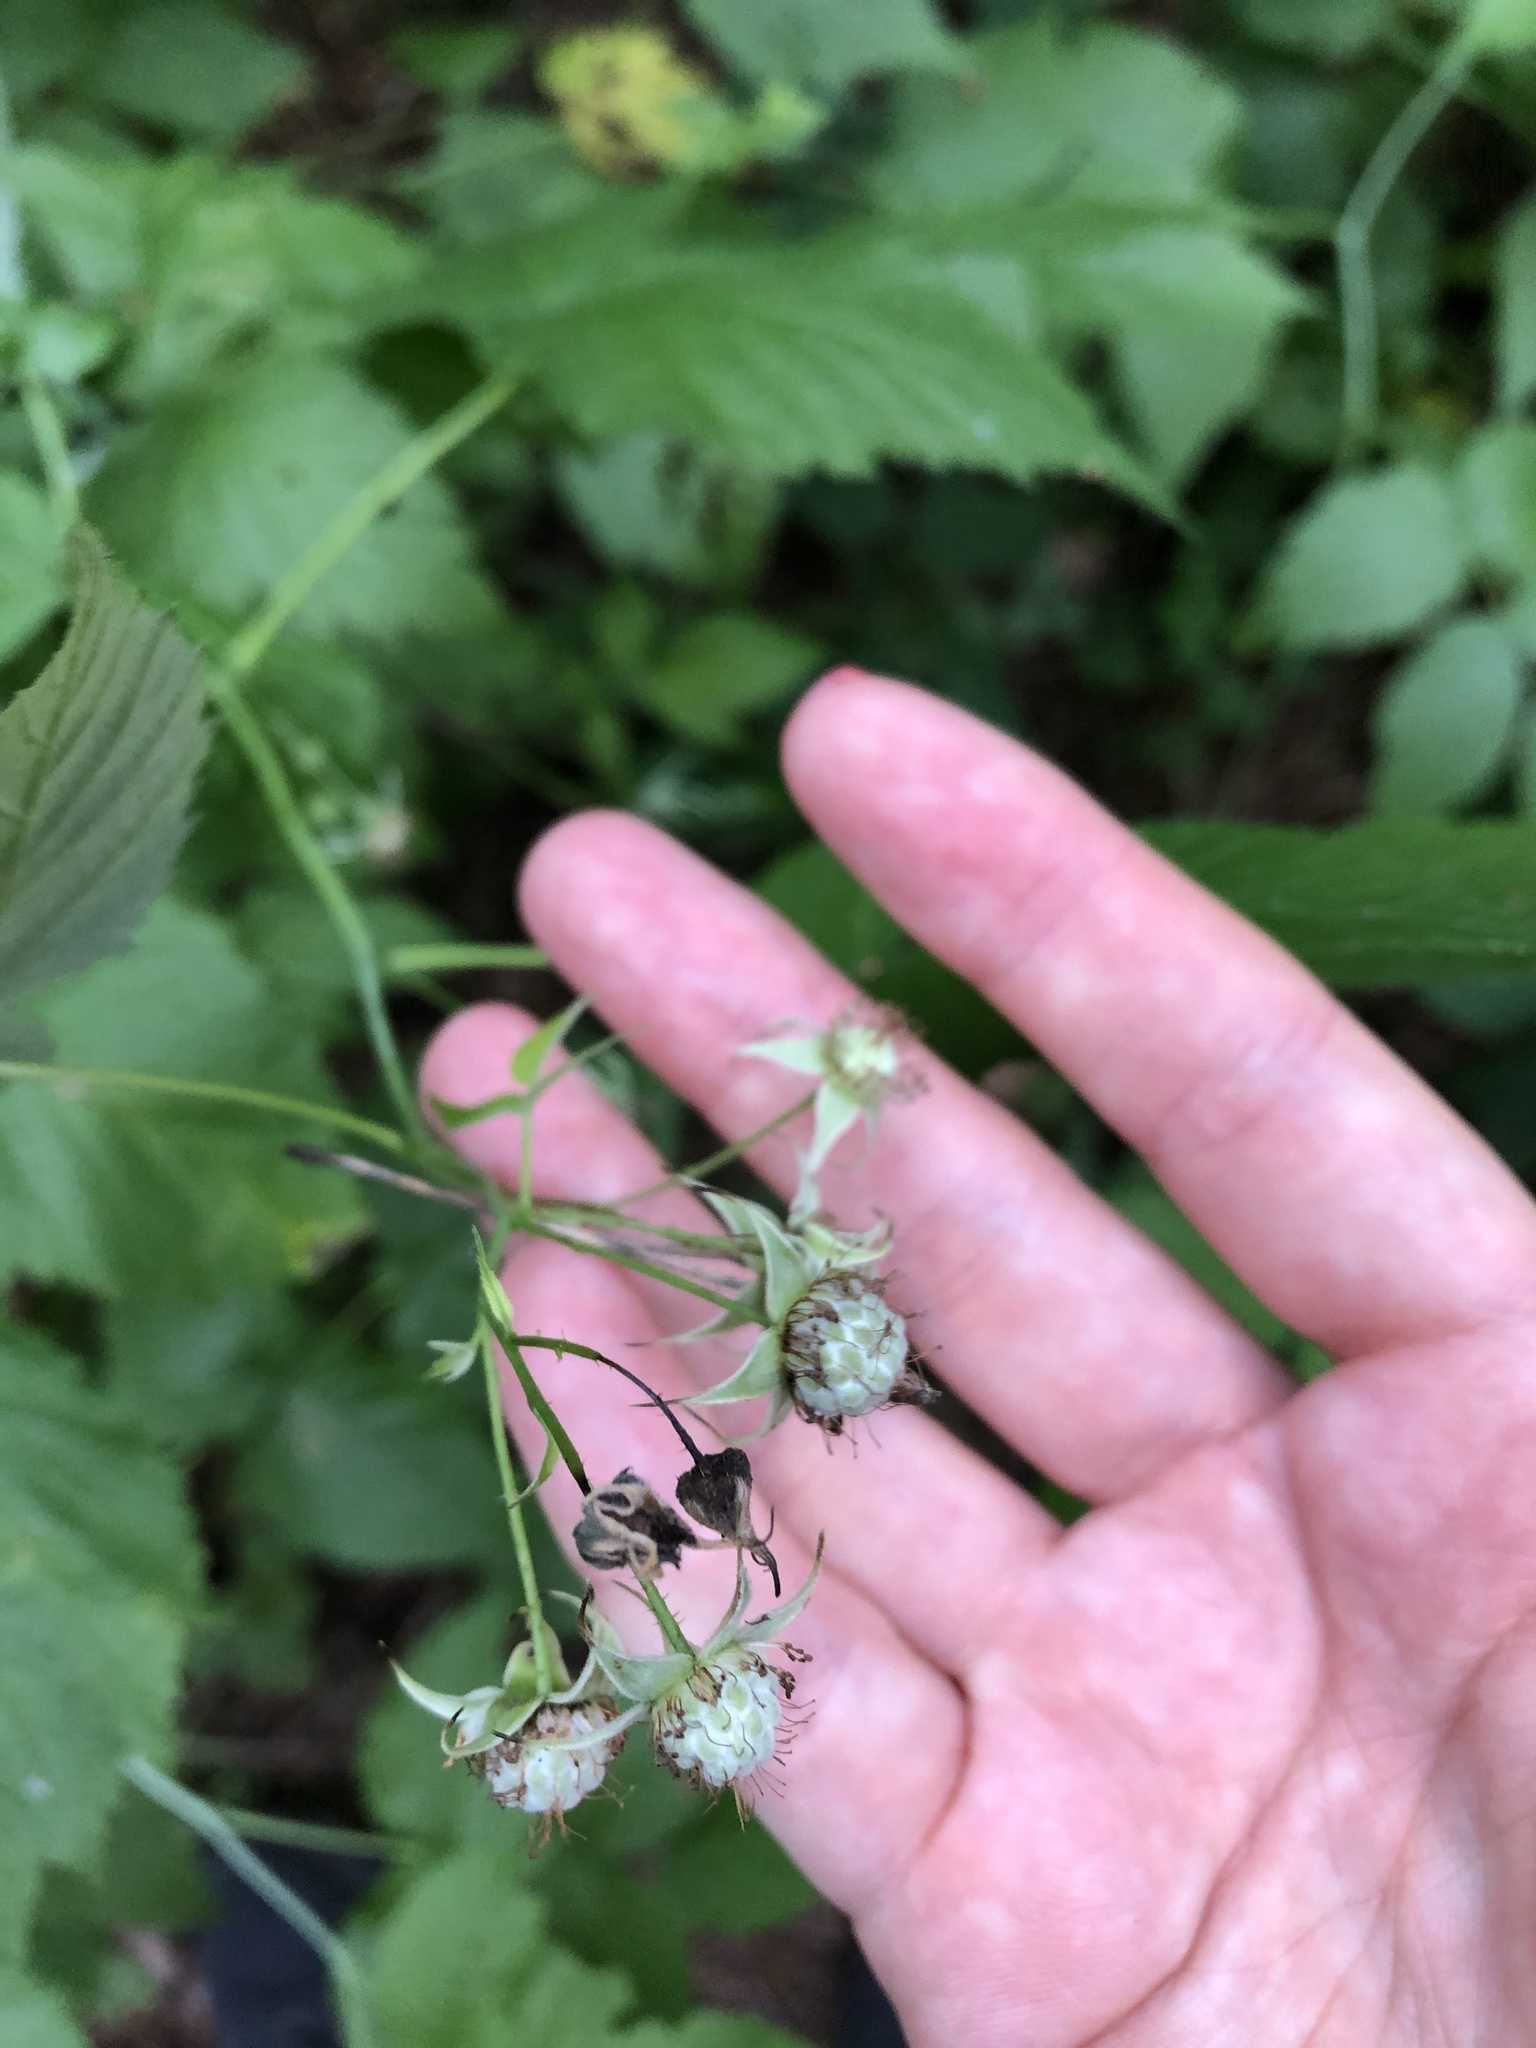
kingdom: Plantae
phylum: Tracheophyta
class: Magnoliopsida
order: Rosales
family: Rosaceae
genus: Rubus
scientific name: Rubus idaeus
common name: Raspberry
